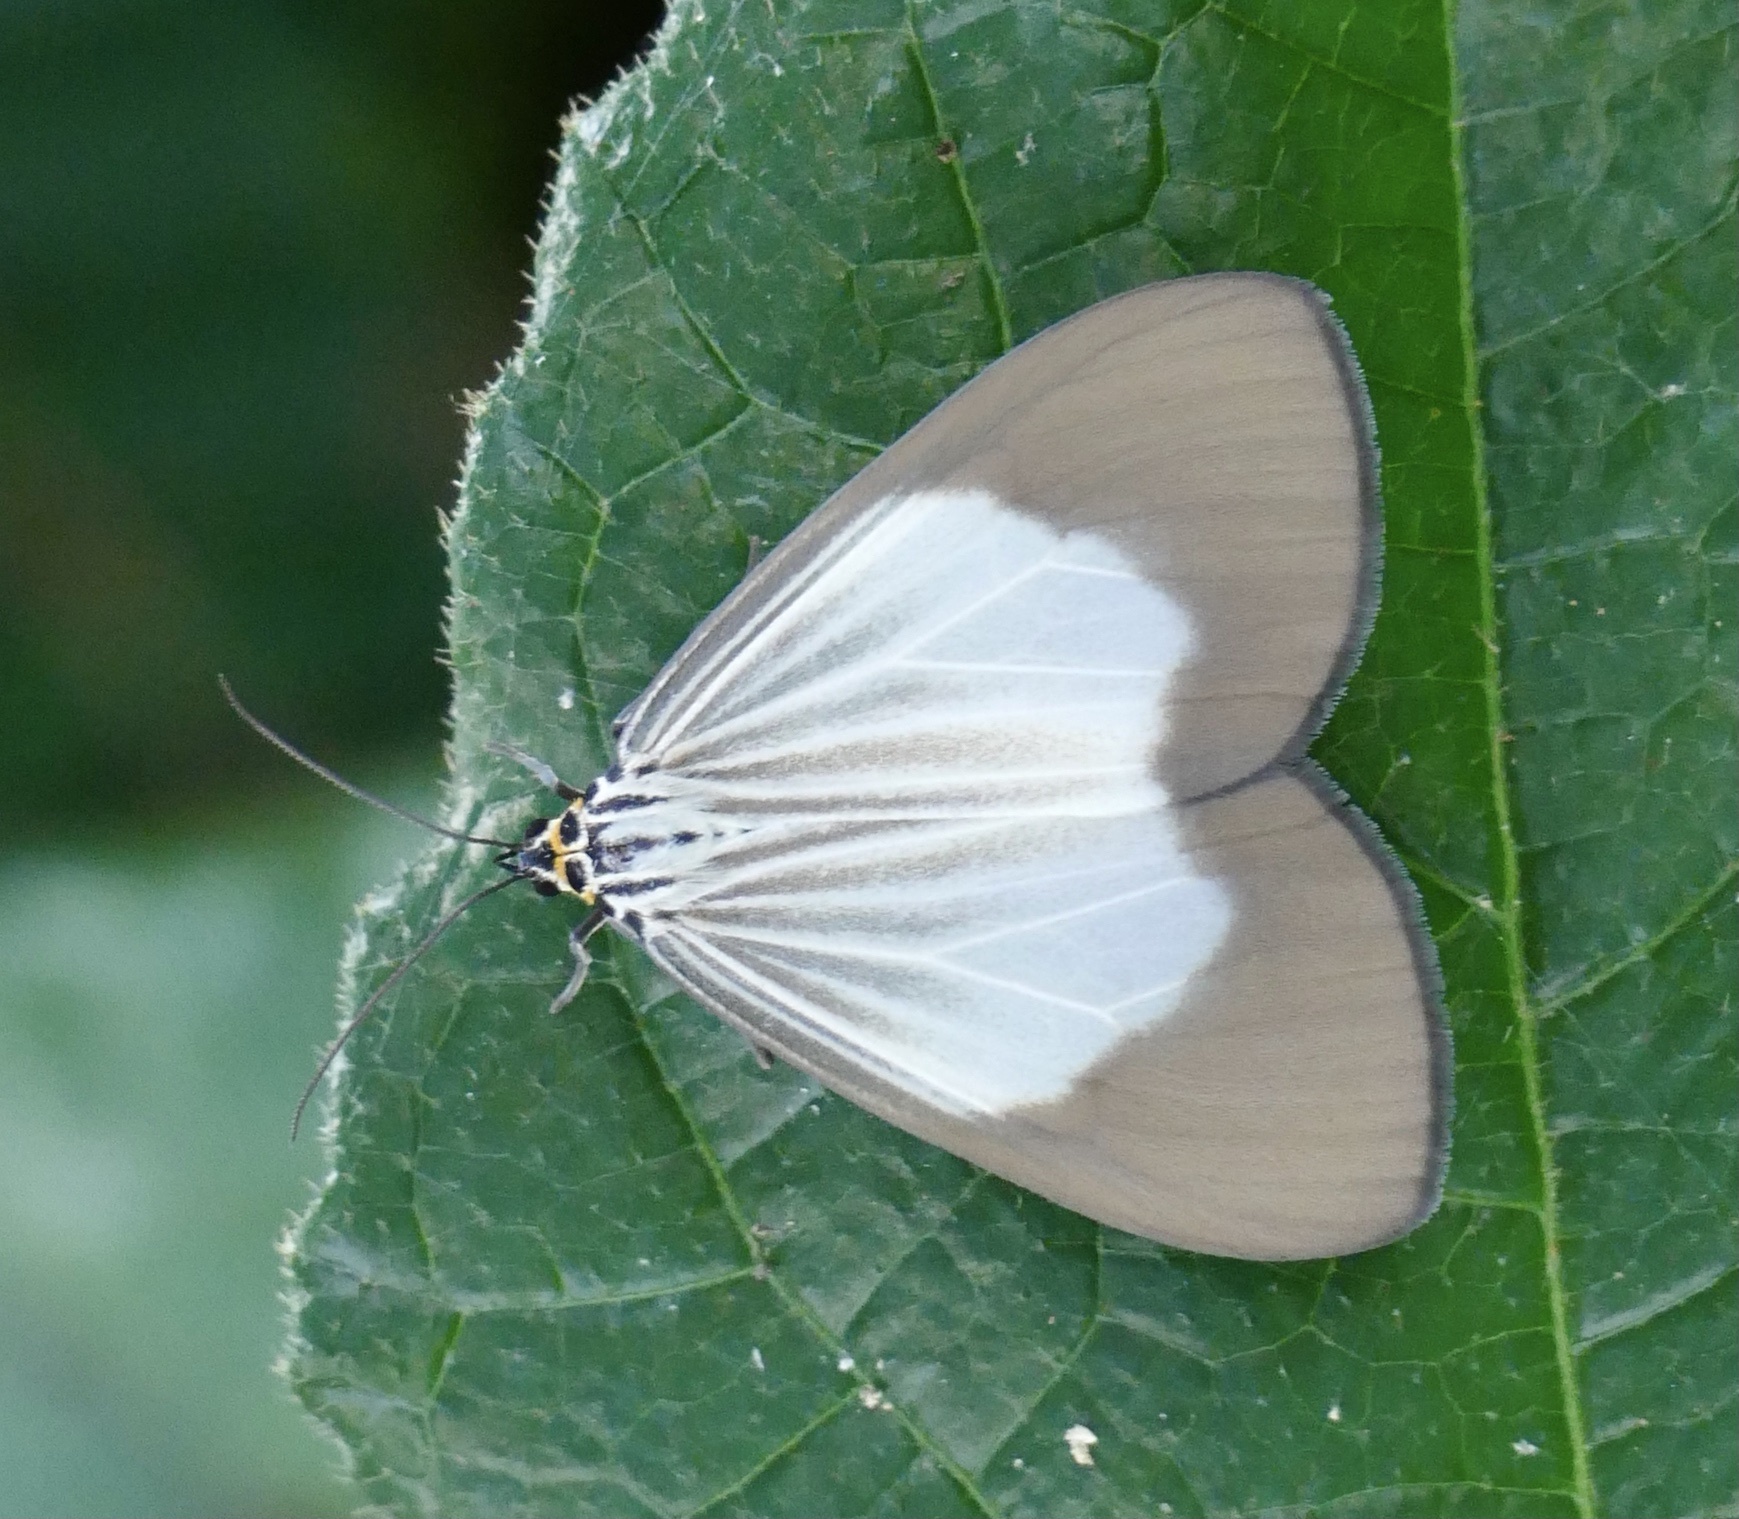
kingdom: Animalia
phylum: Arthropoda
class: Insecta
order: Lepidoptera
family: Erebidae
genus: Nyctemera
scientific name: Nyctemera
